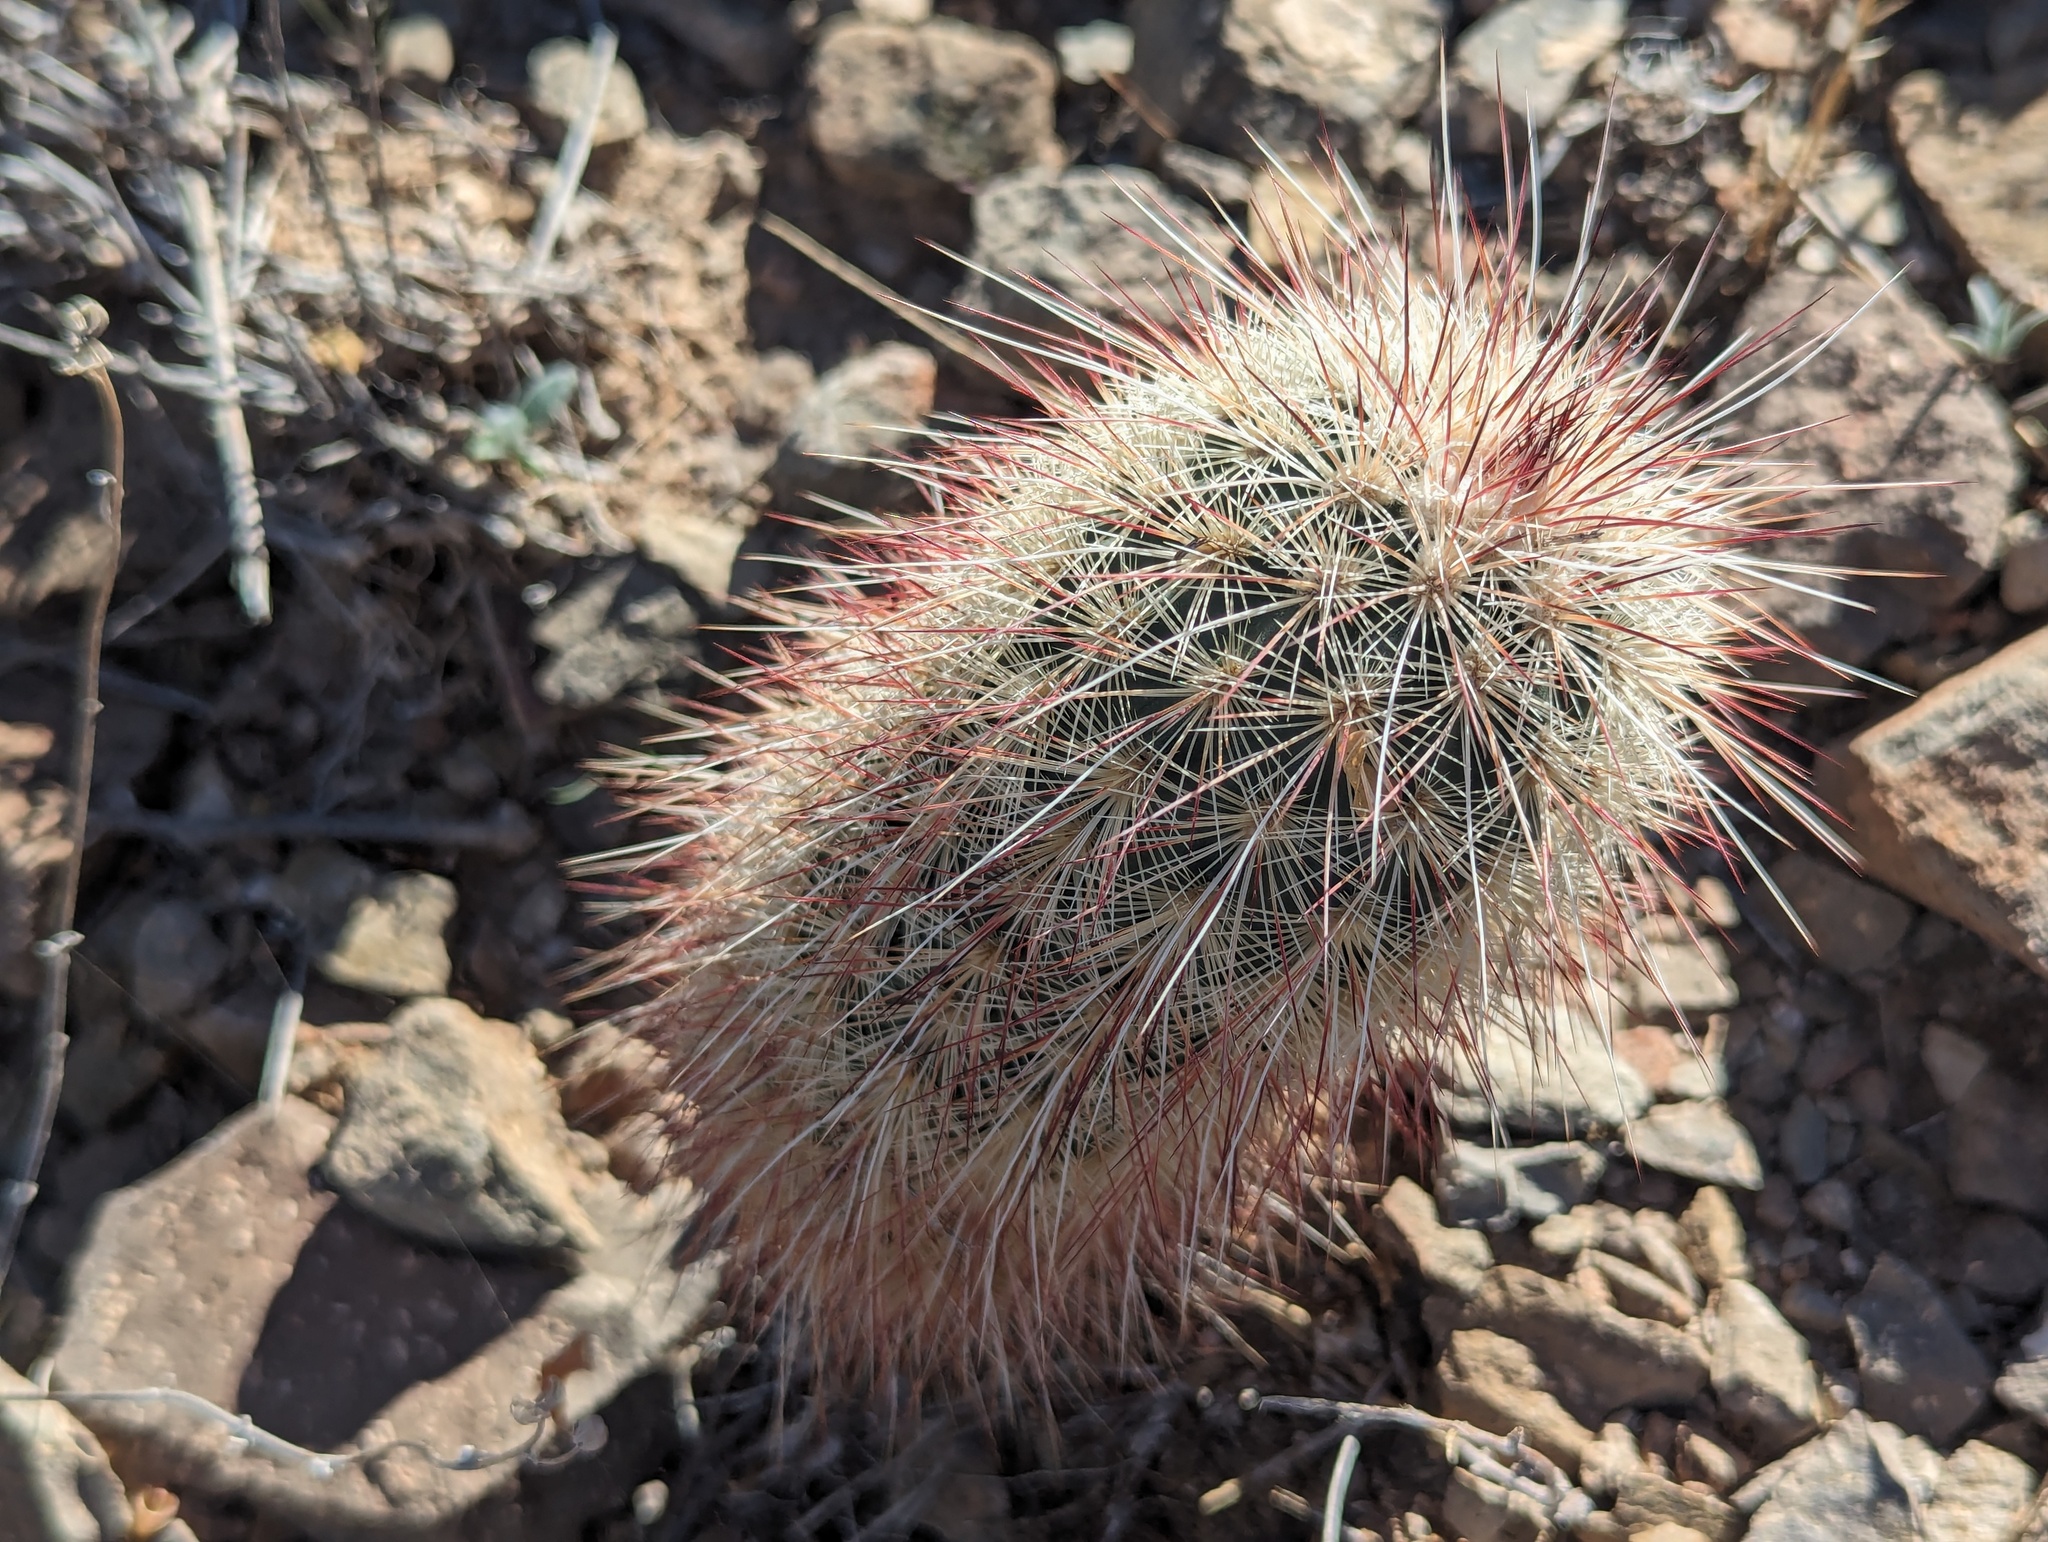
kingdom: Plantae
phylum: Tracheophyta
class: Magnoliopsida
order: Caryophyllales
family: Cactaceae
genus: Echinocereus
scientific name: Echinocereus russanthus
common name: Brownspine hedgehog cactus
